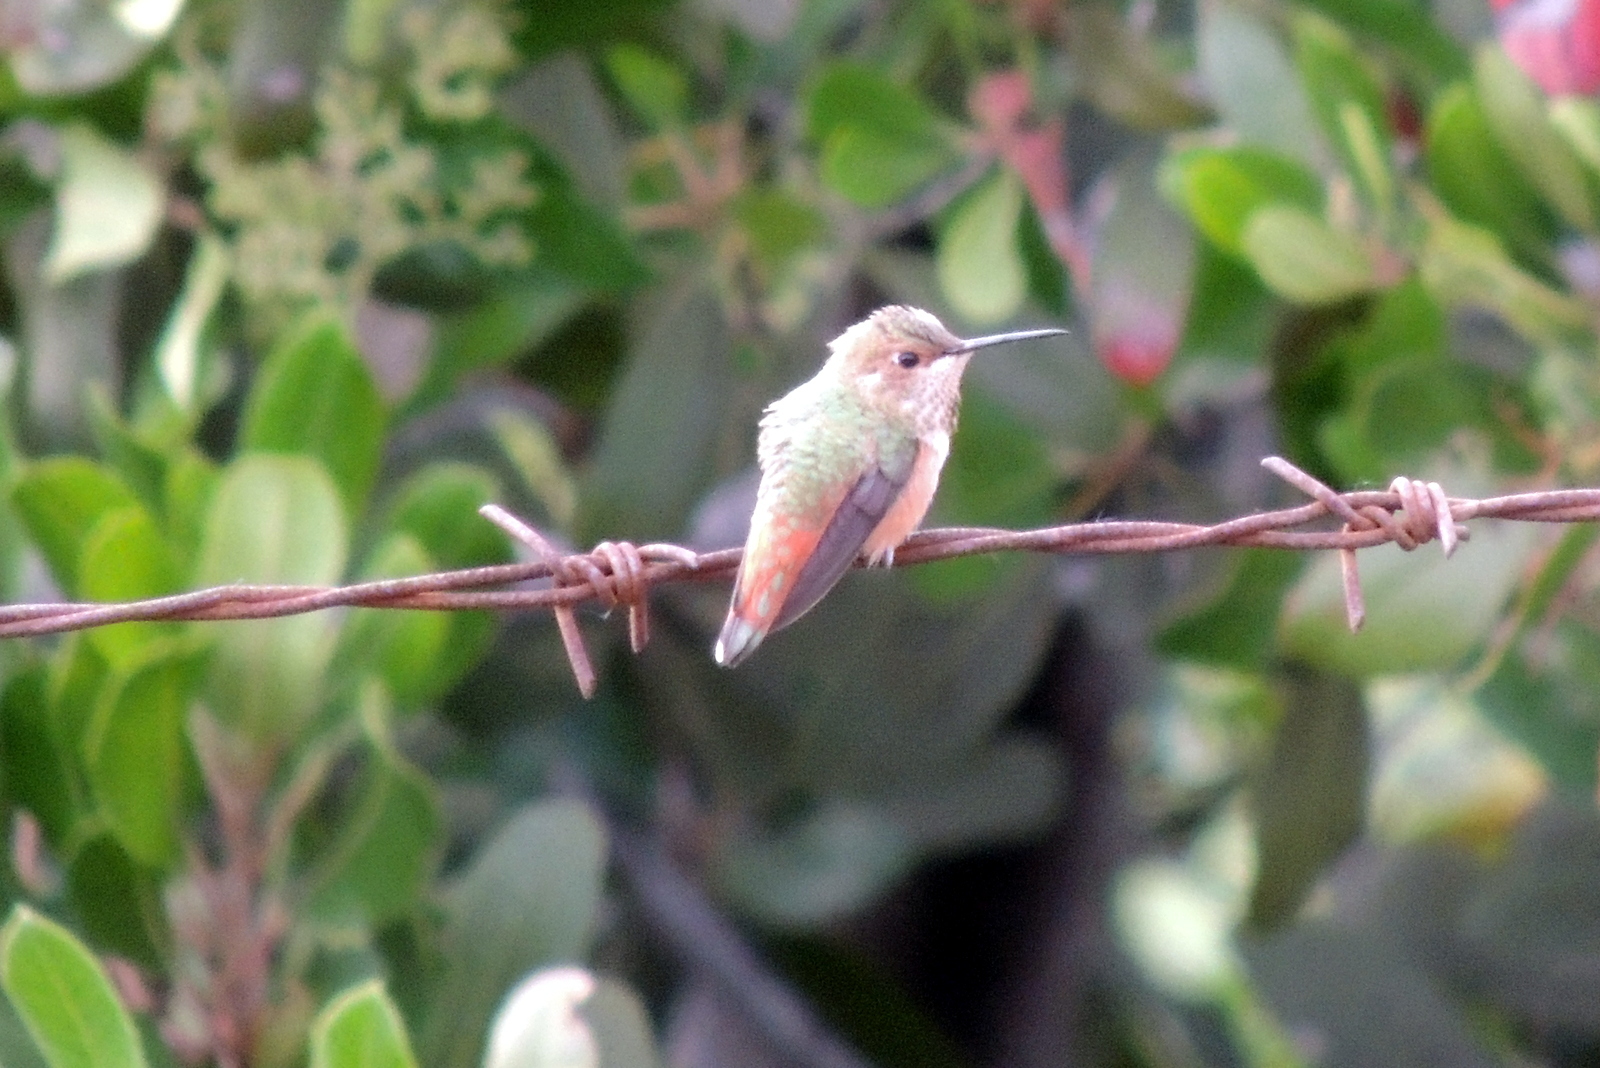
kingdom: Animalia
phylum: Chordata
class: Aves
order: Apodiformes
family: Trochilidae
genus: Selasphorus
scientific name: Selasphorus sasin
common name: Allen's hummingbird
